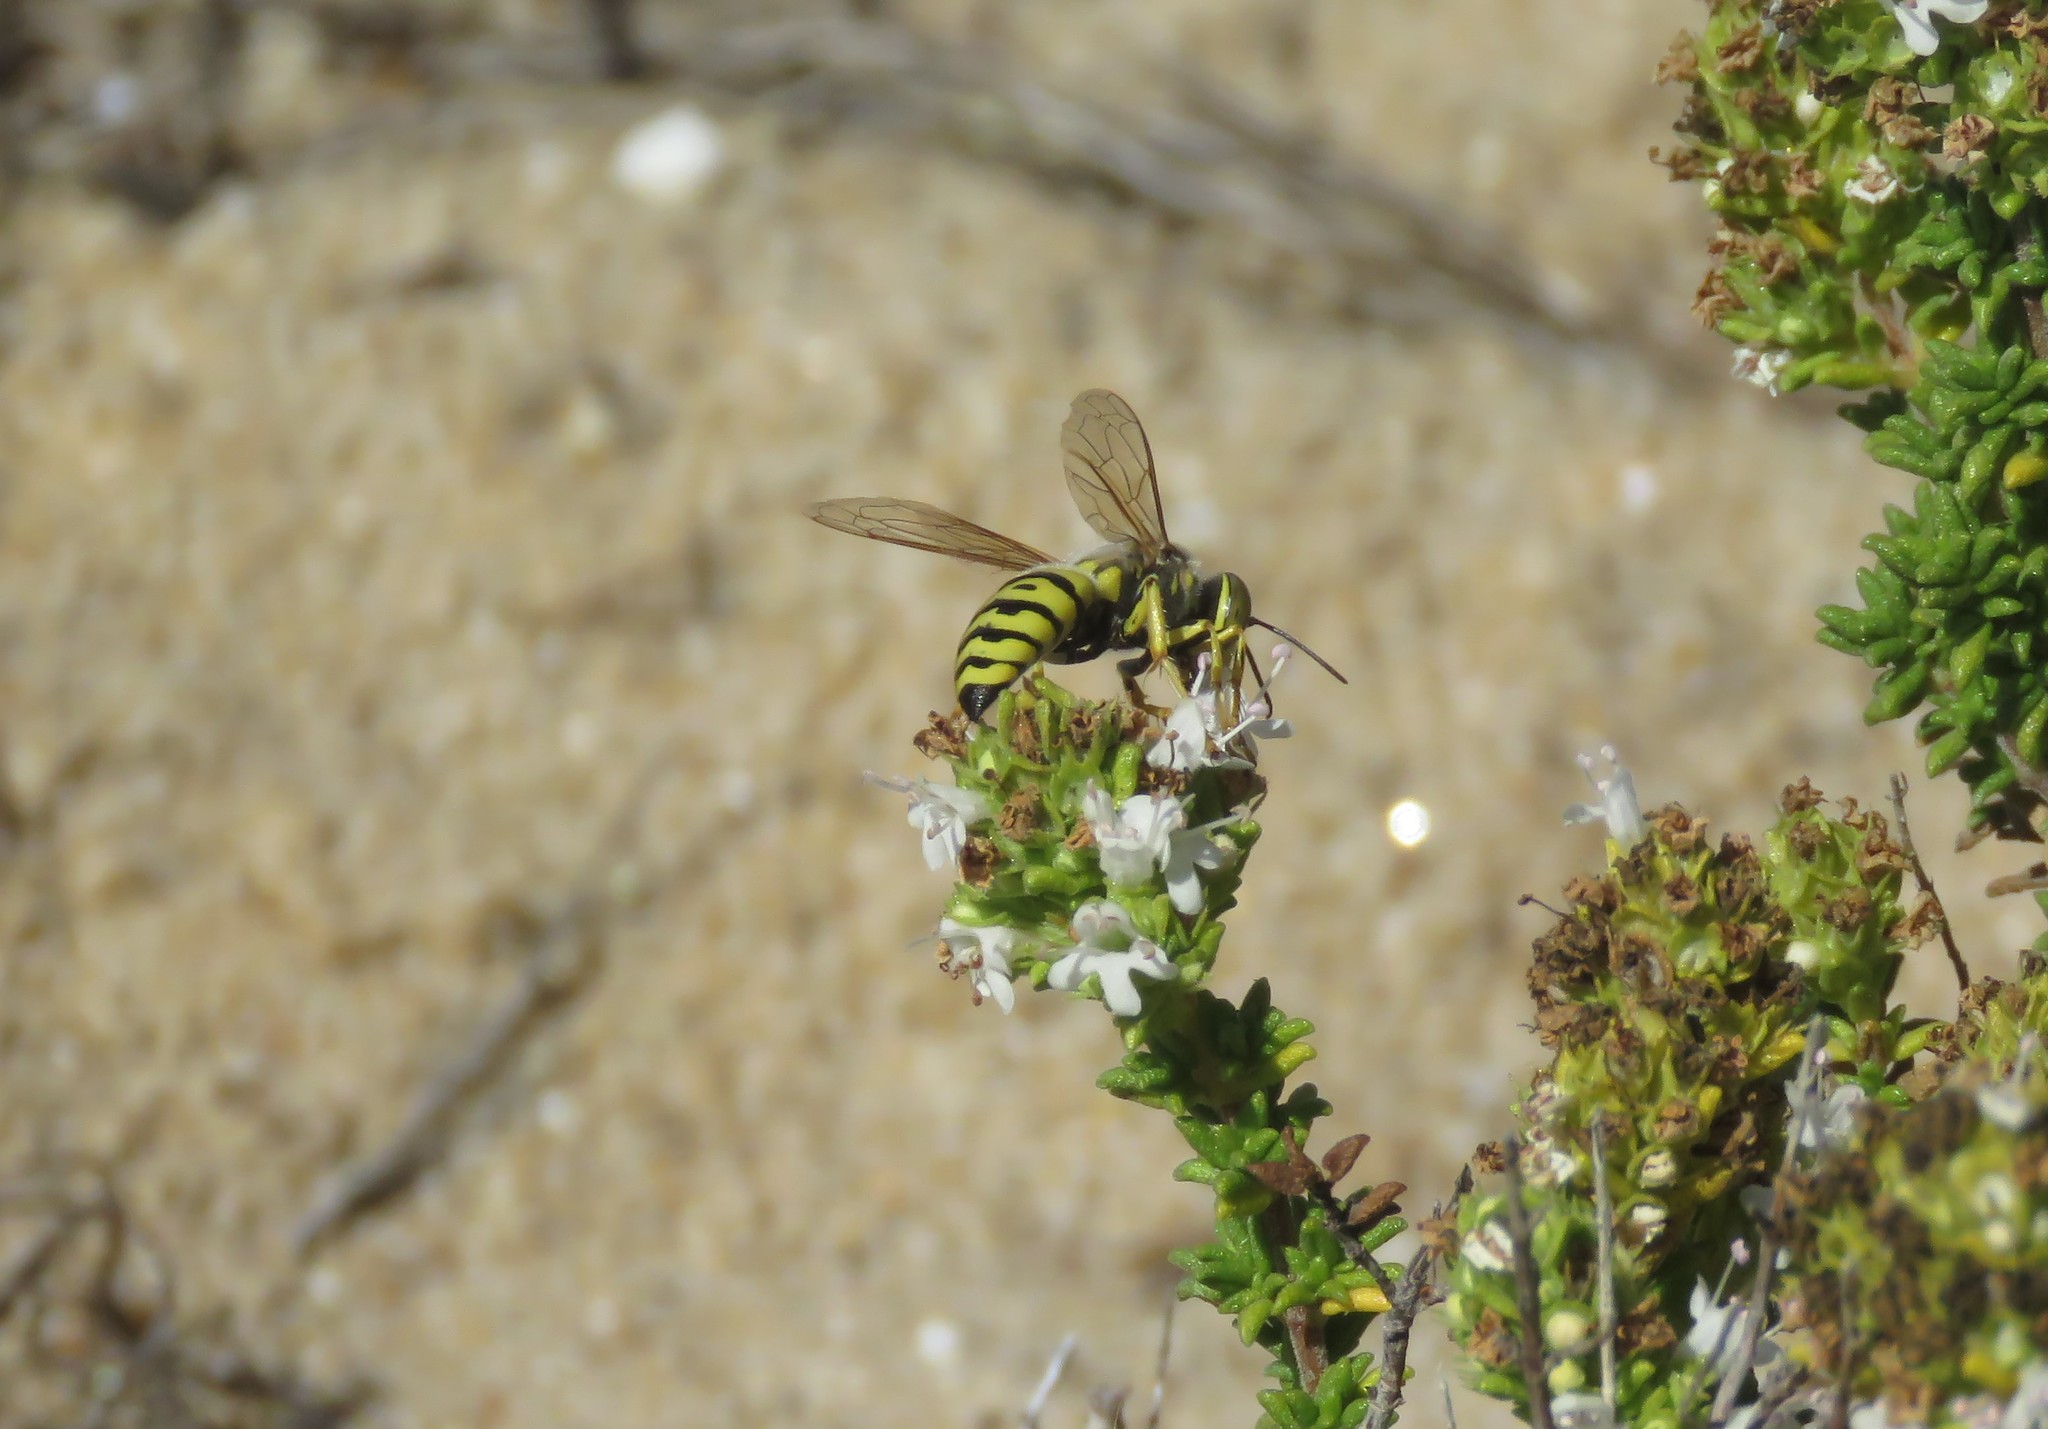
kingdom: Animalia
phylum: Arthropoda
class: Insecta
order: Hymenoptera
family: Crabronidae
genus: Bembix
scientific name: Bembix oculata
